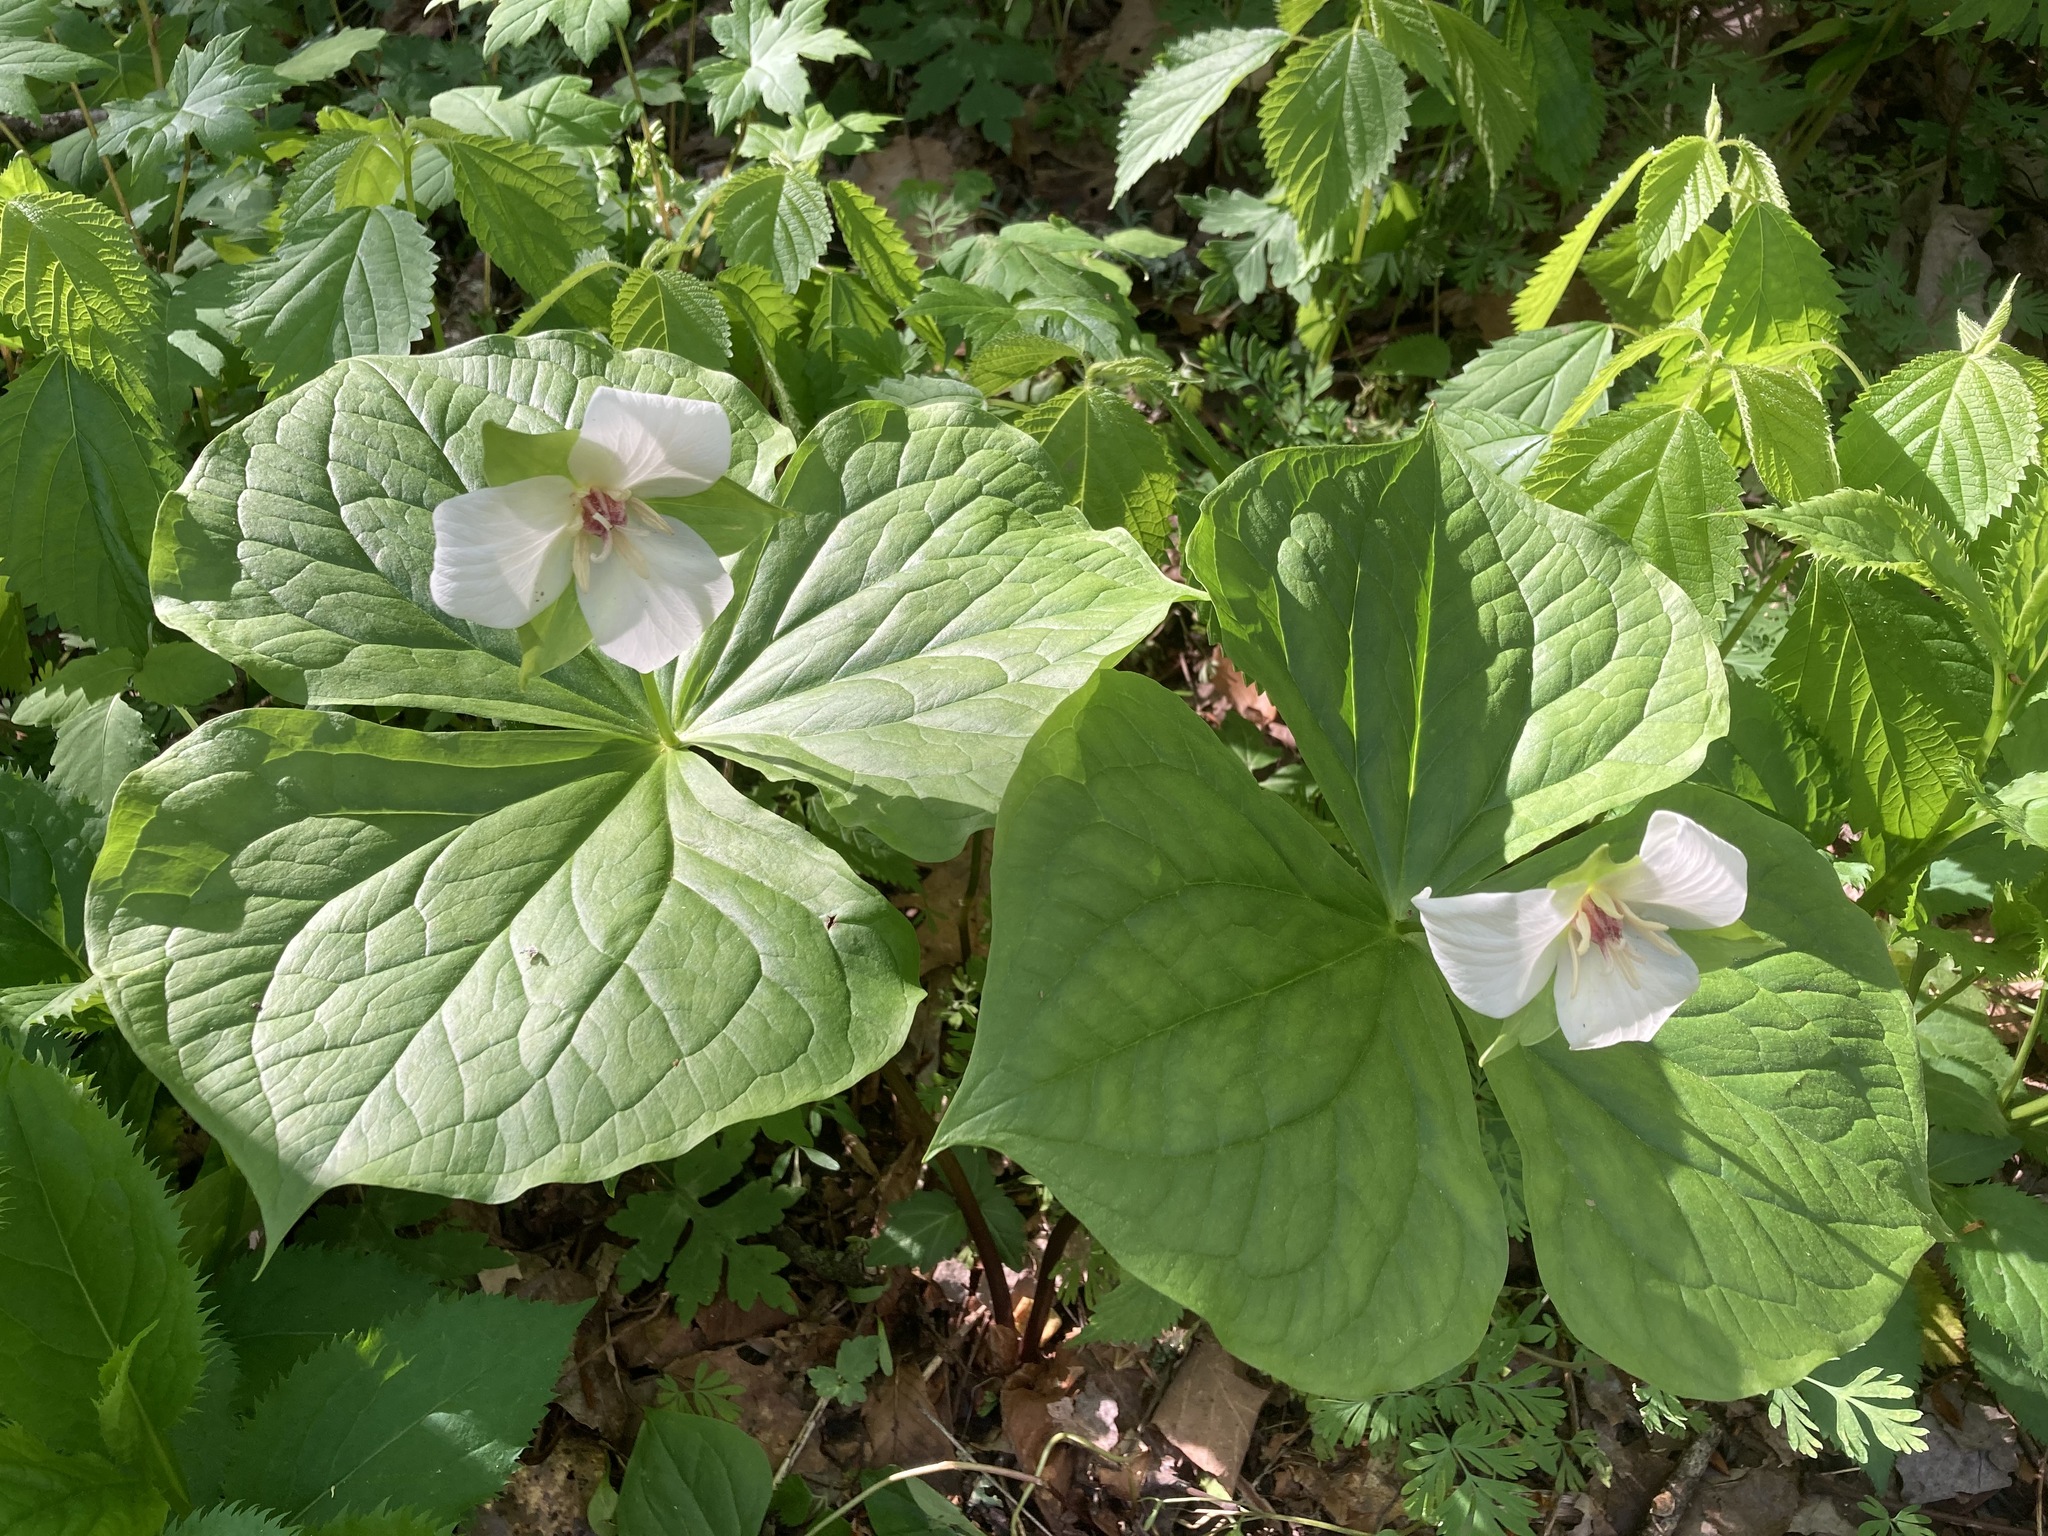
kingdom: Plantae
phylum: Tracheophyta
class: Liliopsida
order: Liliales
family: Melanthiaceae
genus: Trillium
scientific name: Trillium flexipes
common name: Drooping trillium
